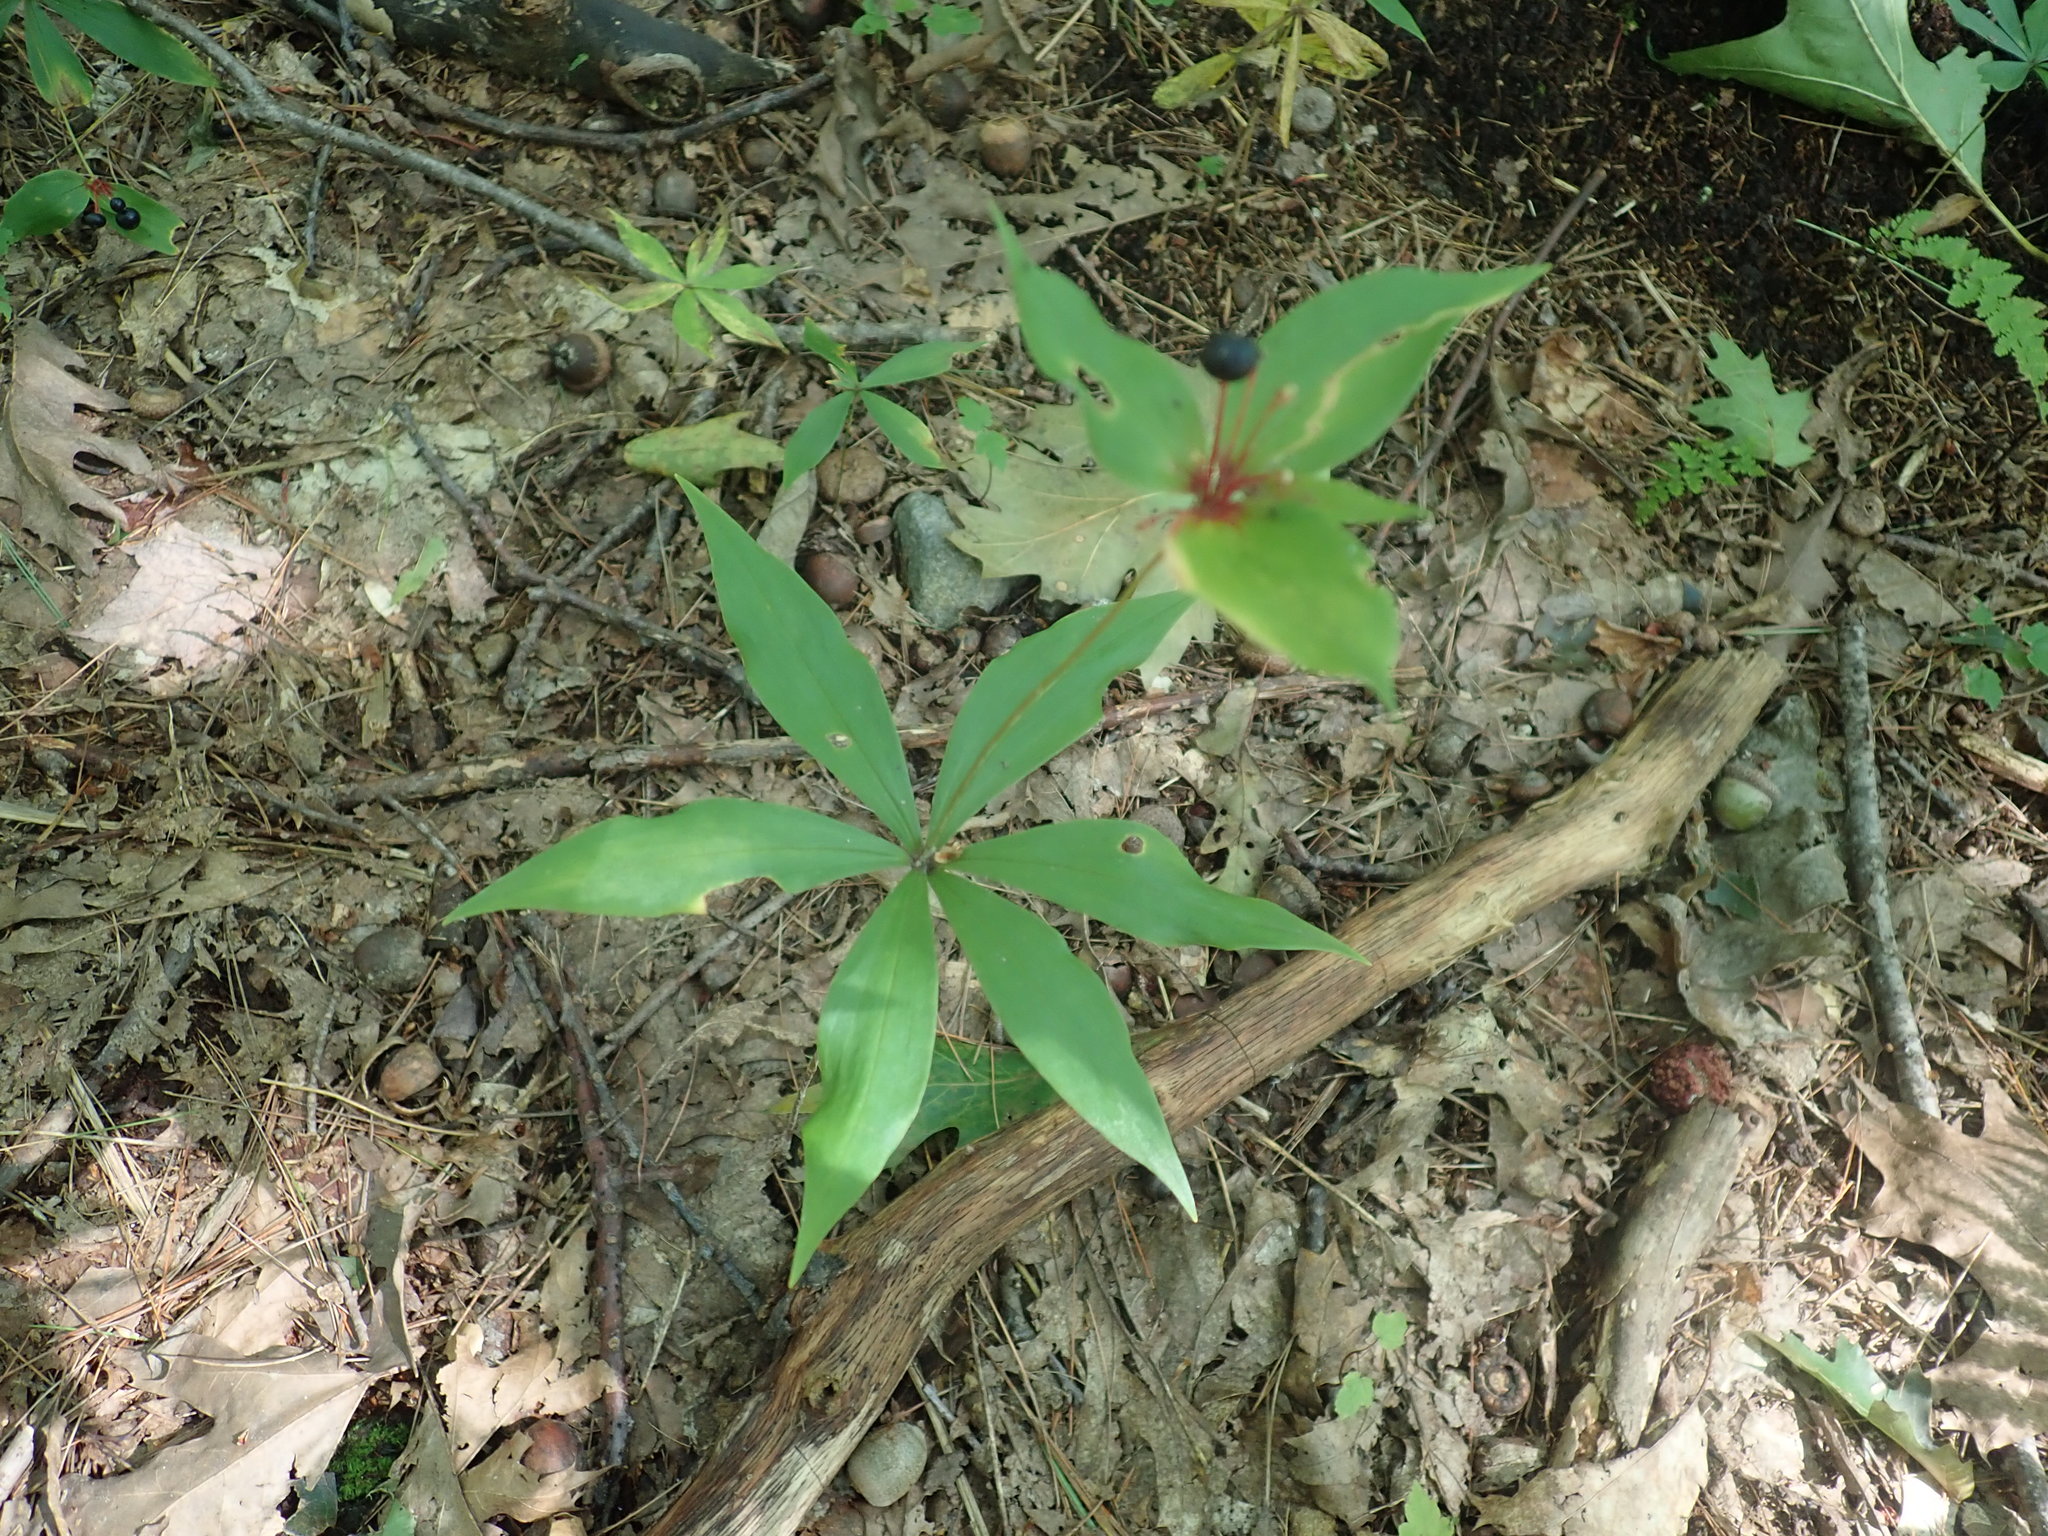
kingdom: Plantae
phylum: Tracheophyta
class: Liliopsida
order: Liliales
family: Liliaceae
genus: Medeola
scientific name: Medeola virginiana
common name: Indian cucumber-root
